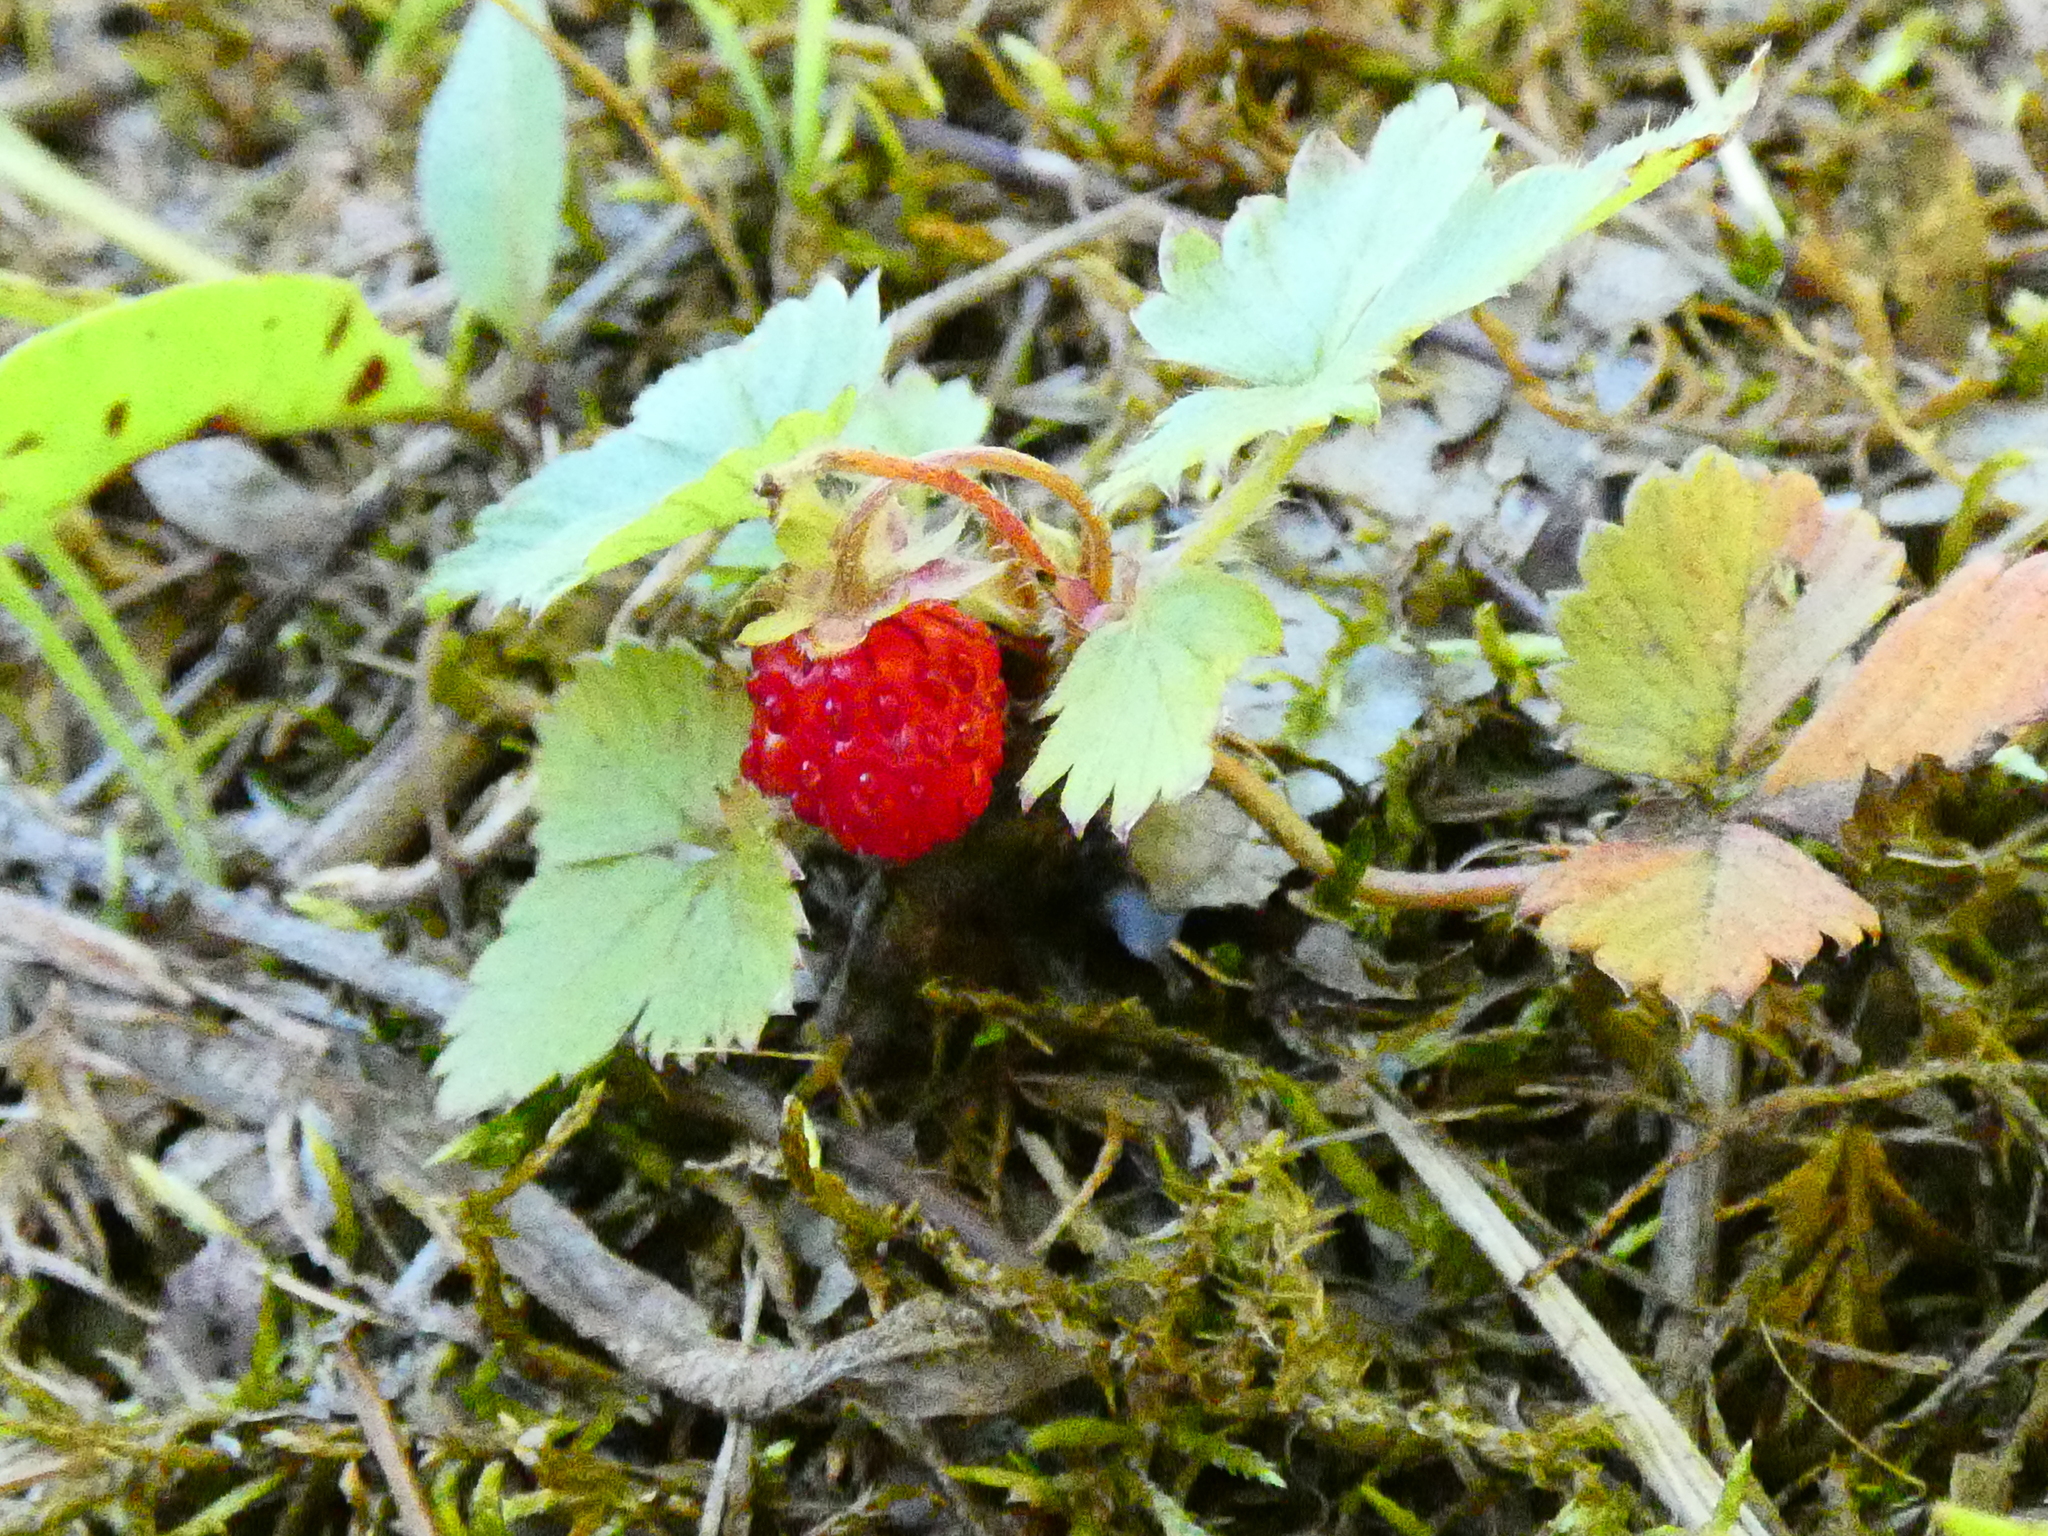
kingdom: Plantae
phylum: Tracheophyta
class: Magnoliopsida
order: Rosales
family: Rosaceae
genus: Fragaria
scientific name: Fragaria vesca
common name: Wild strawberry
